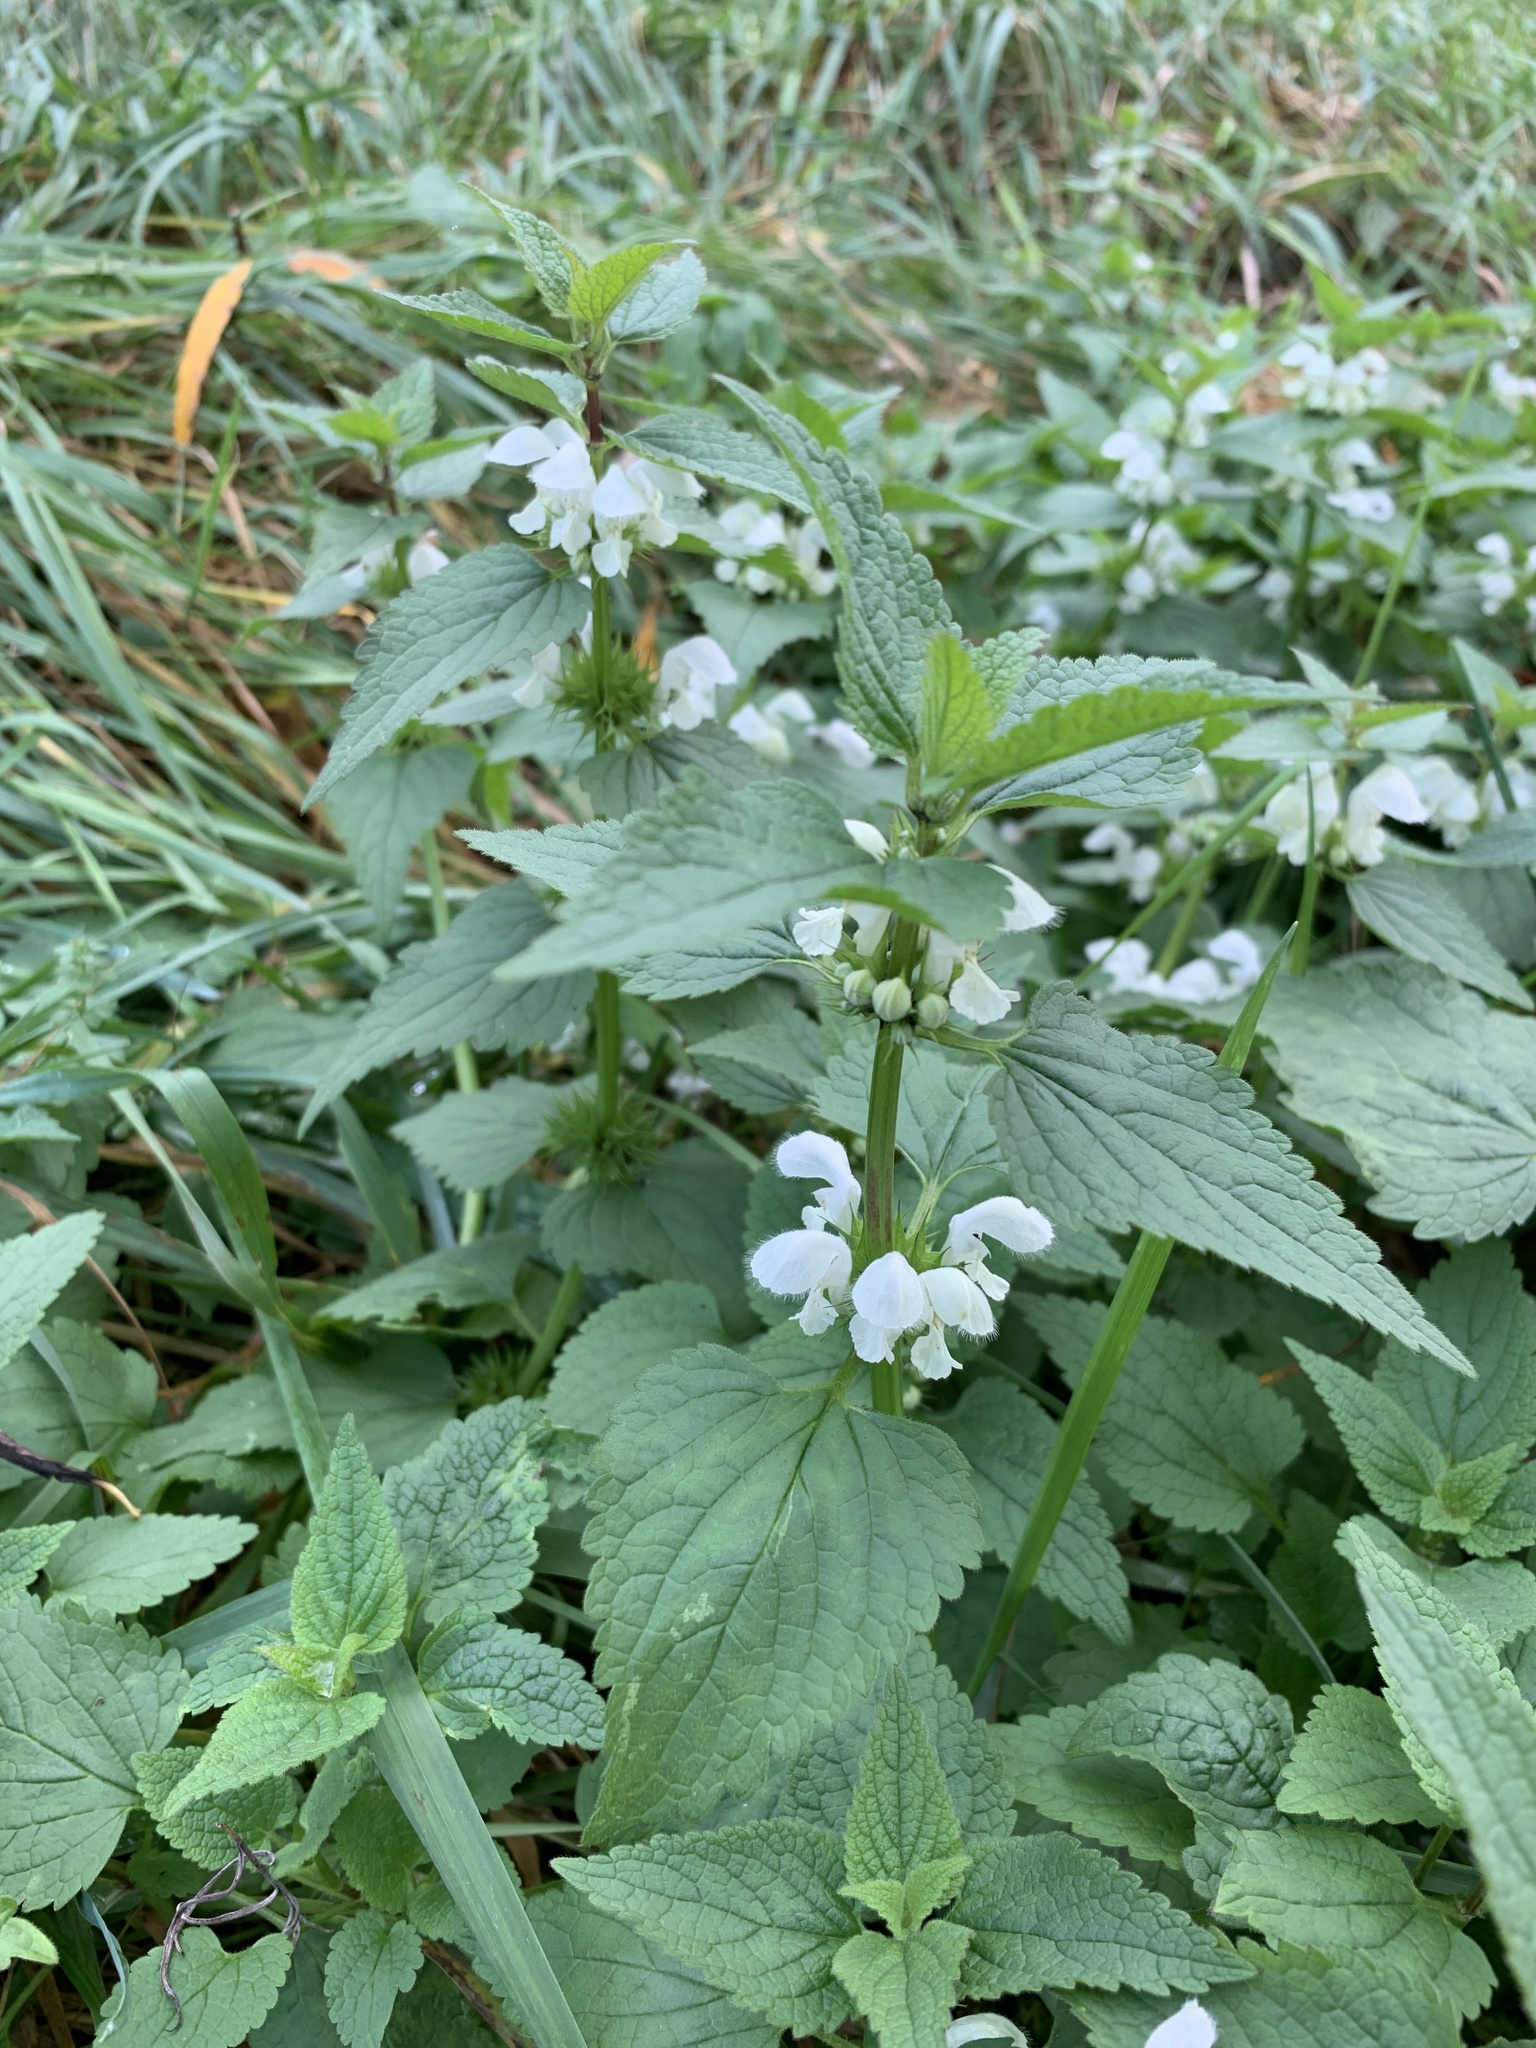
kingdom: Plantae
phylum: Tracheophyta
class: Magnoliopsida
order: Lamiales
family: Lamiaceae
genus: Lamium
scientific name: Lamium album
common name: White dead-nettle
